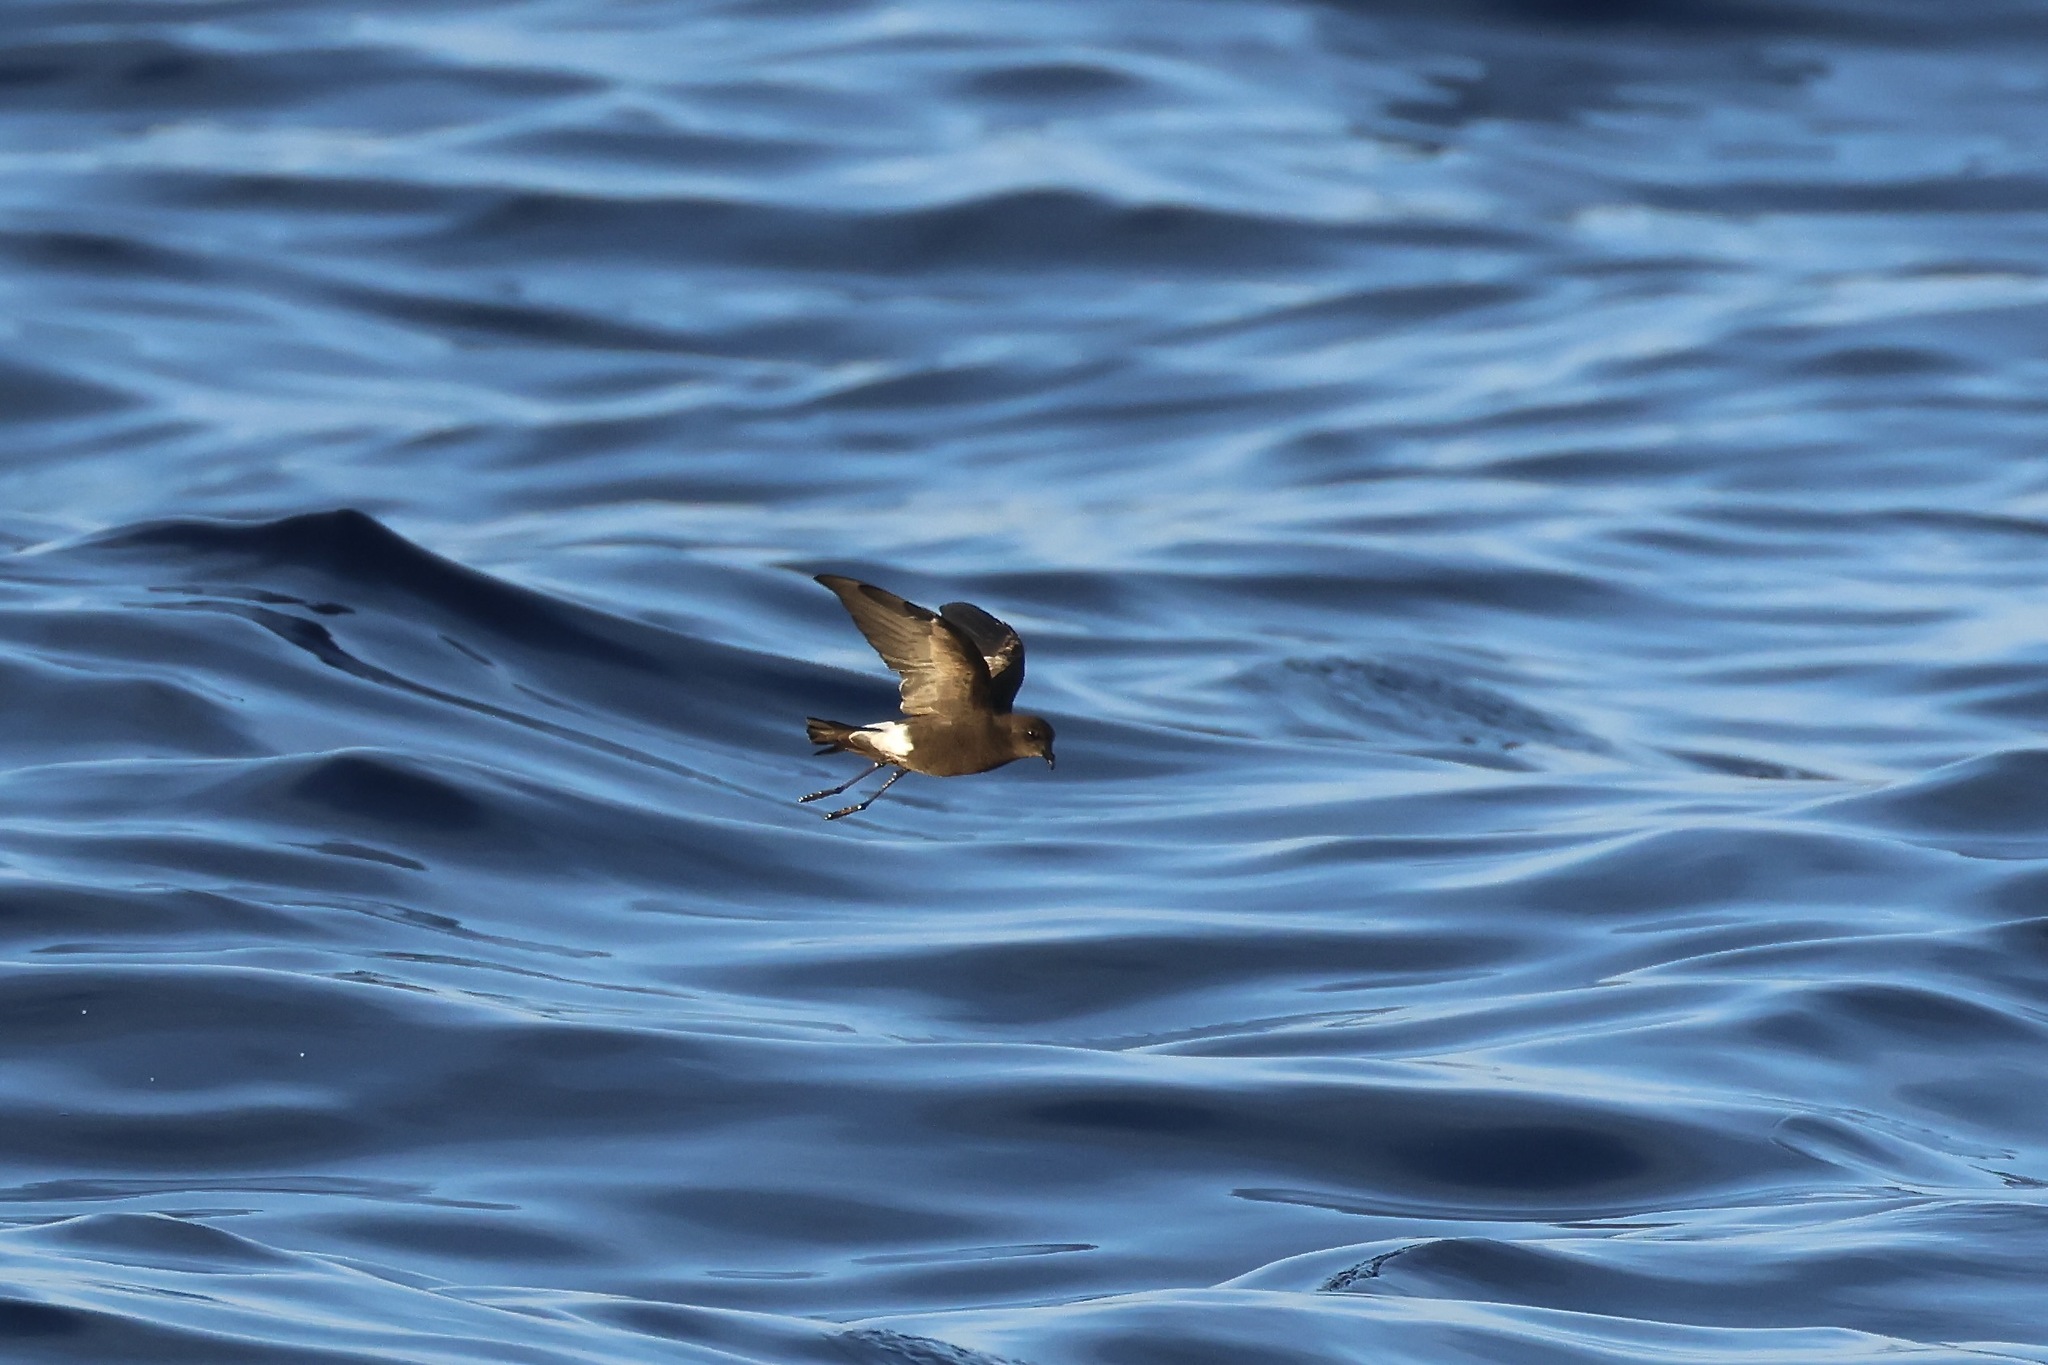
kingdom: Animalia
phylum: Chordata
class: Aves
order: Procellariiformes
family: Hydrobatidae
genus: Oceanites
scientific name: Oceanites oceanicus
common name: Wilson's storm petrel
